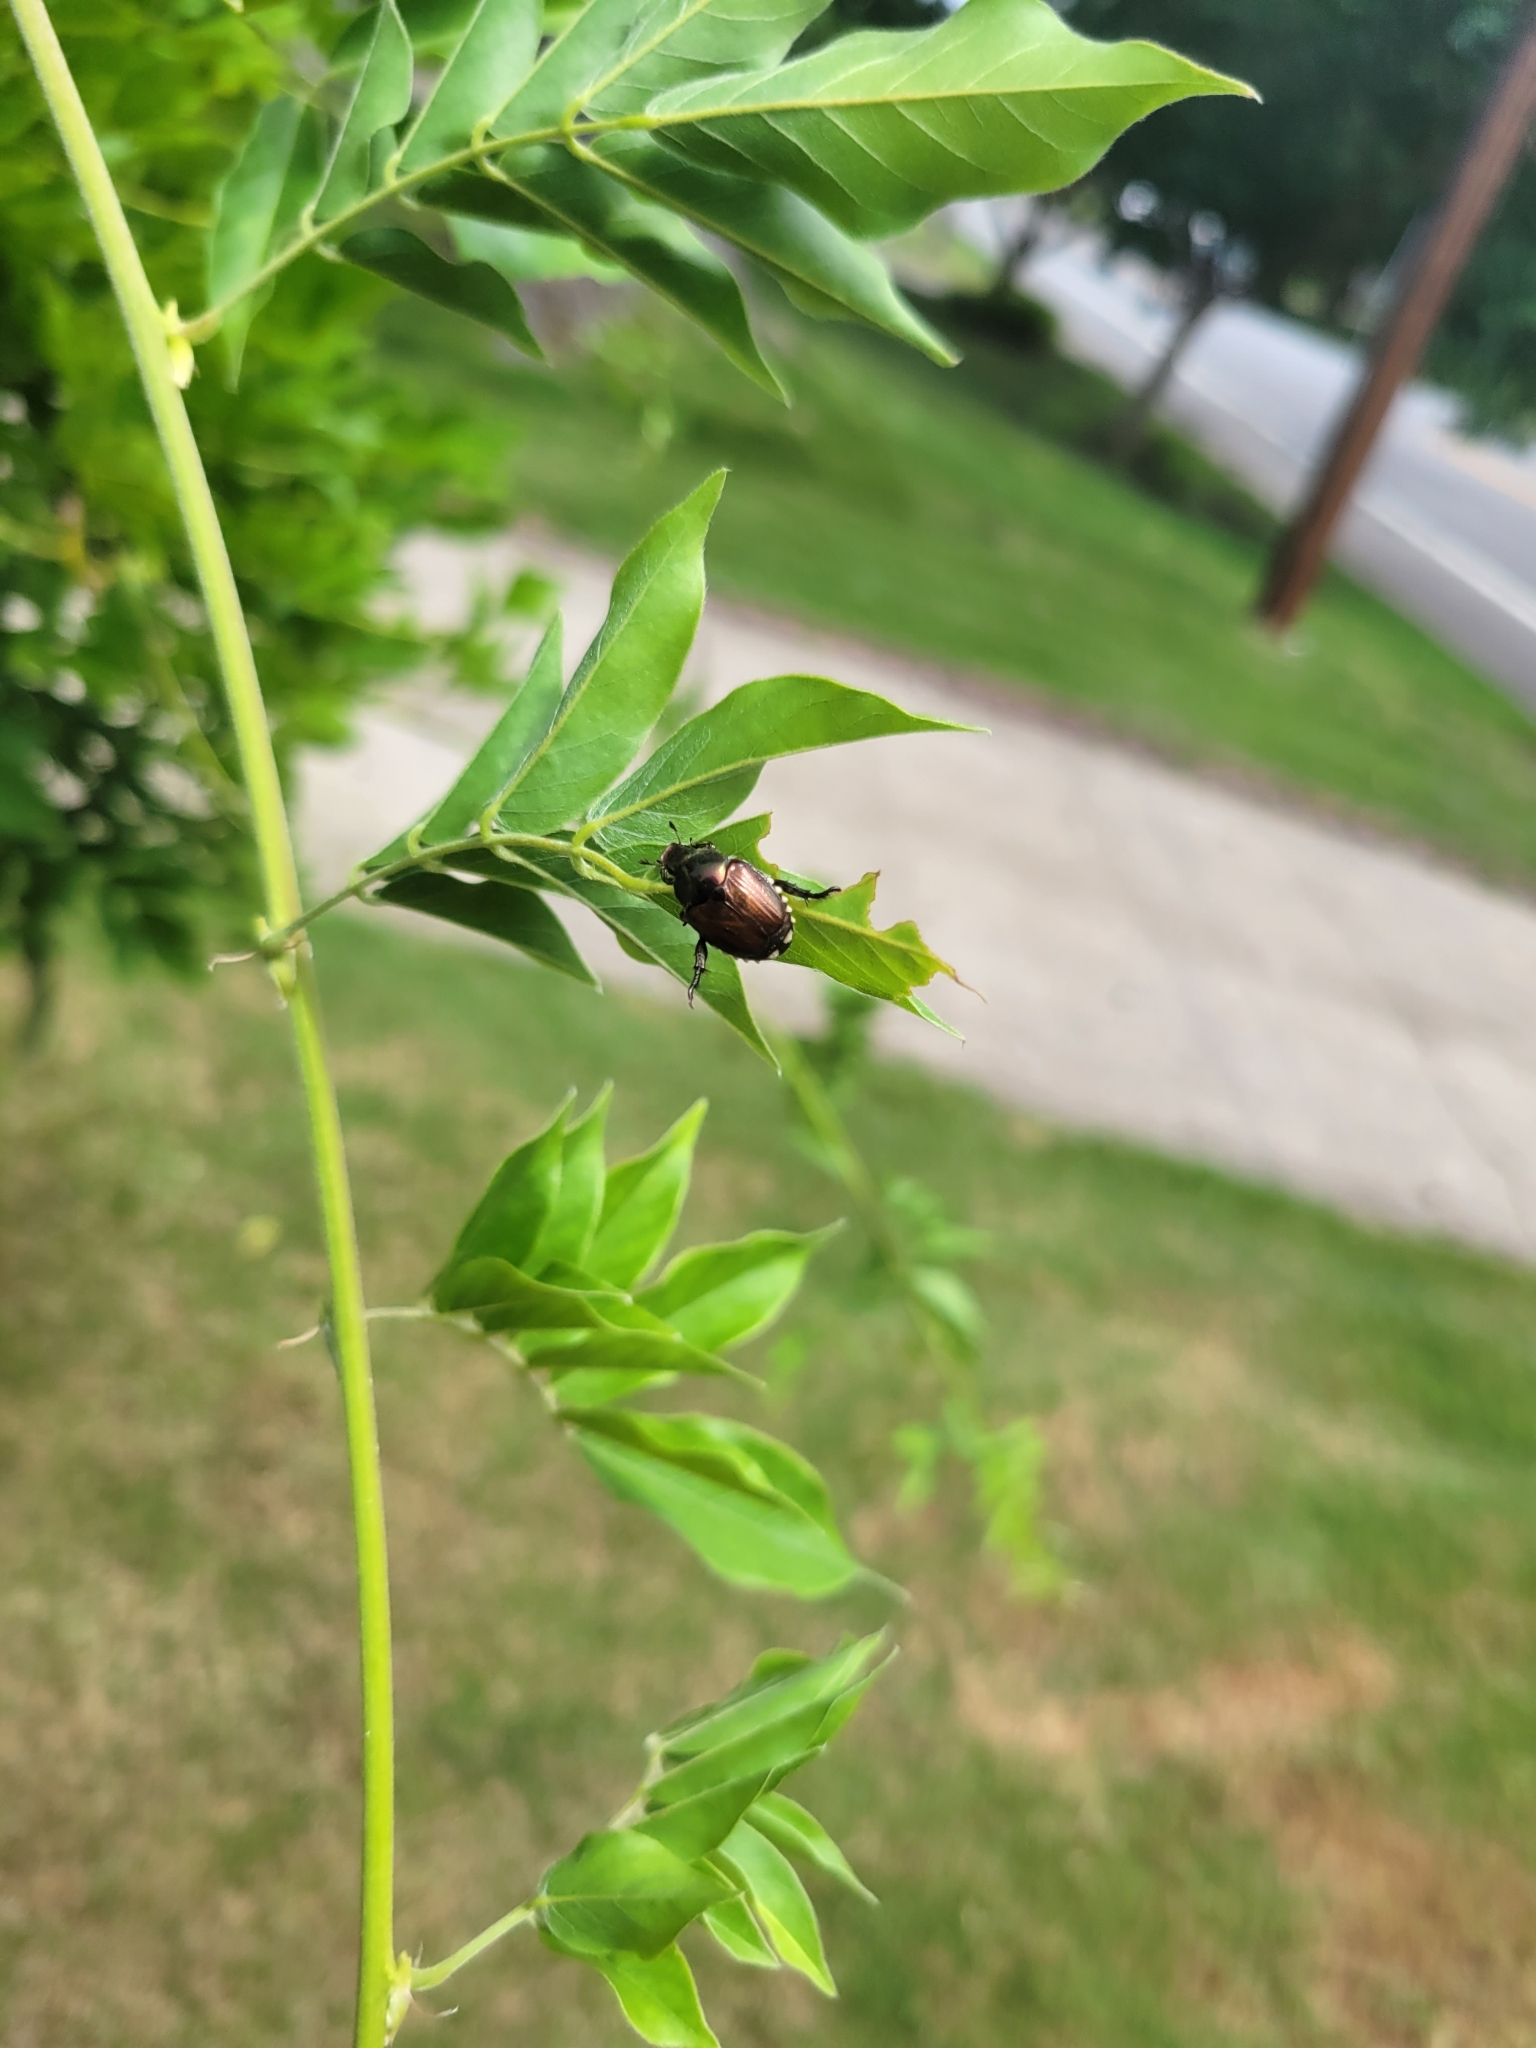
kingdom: Animalia
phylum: Arthropoda
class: Insecta
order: Coleoptera
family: Scarabaeidae
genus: Popillia
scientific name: Popillia japonica
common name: Japanese beetle
